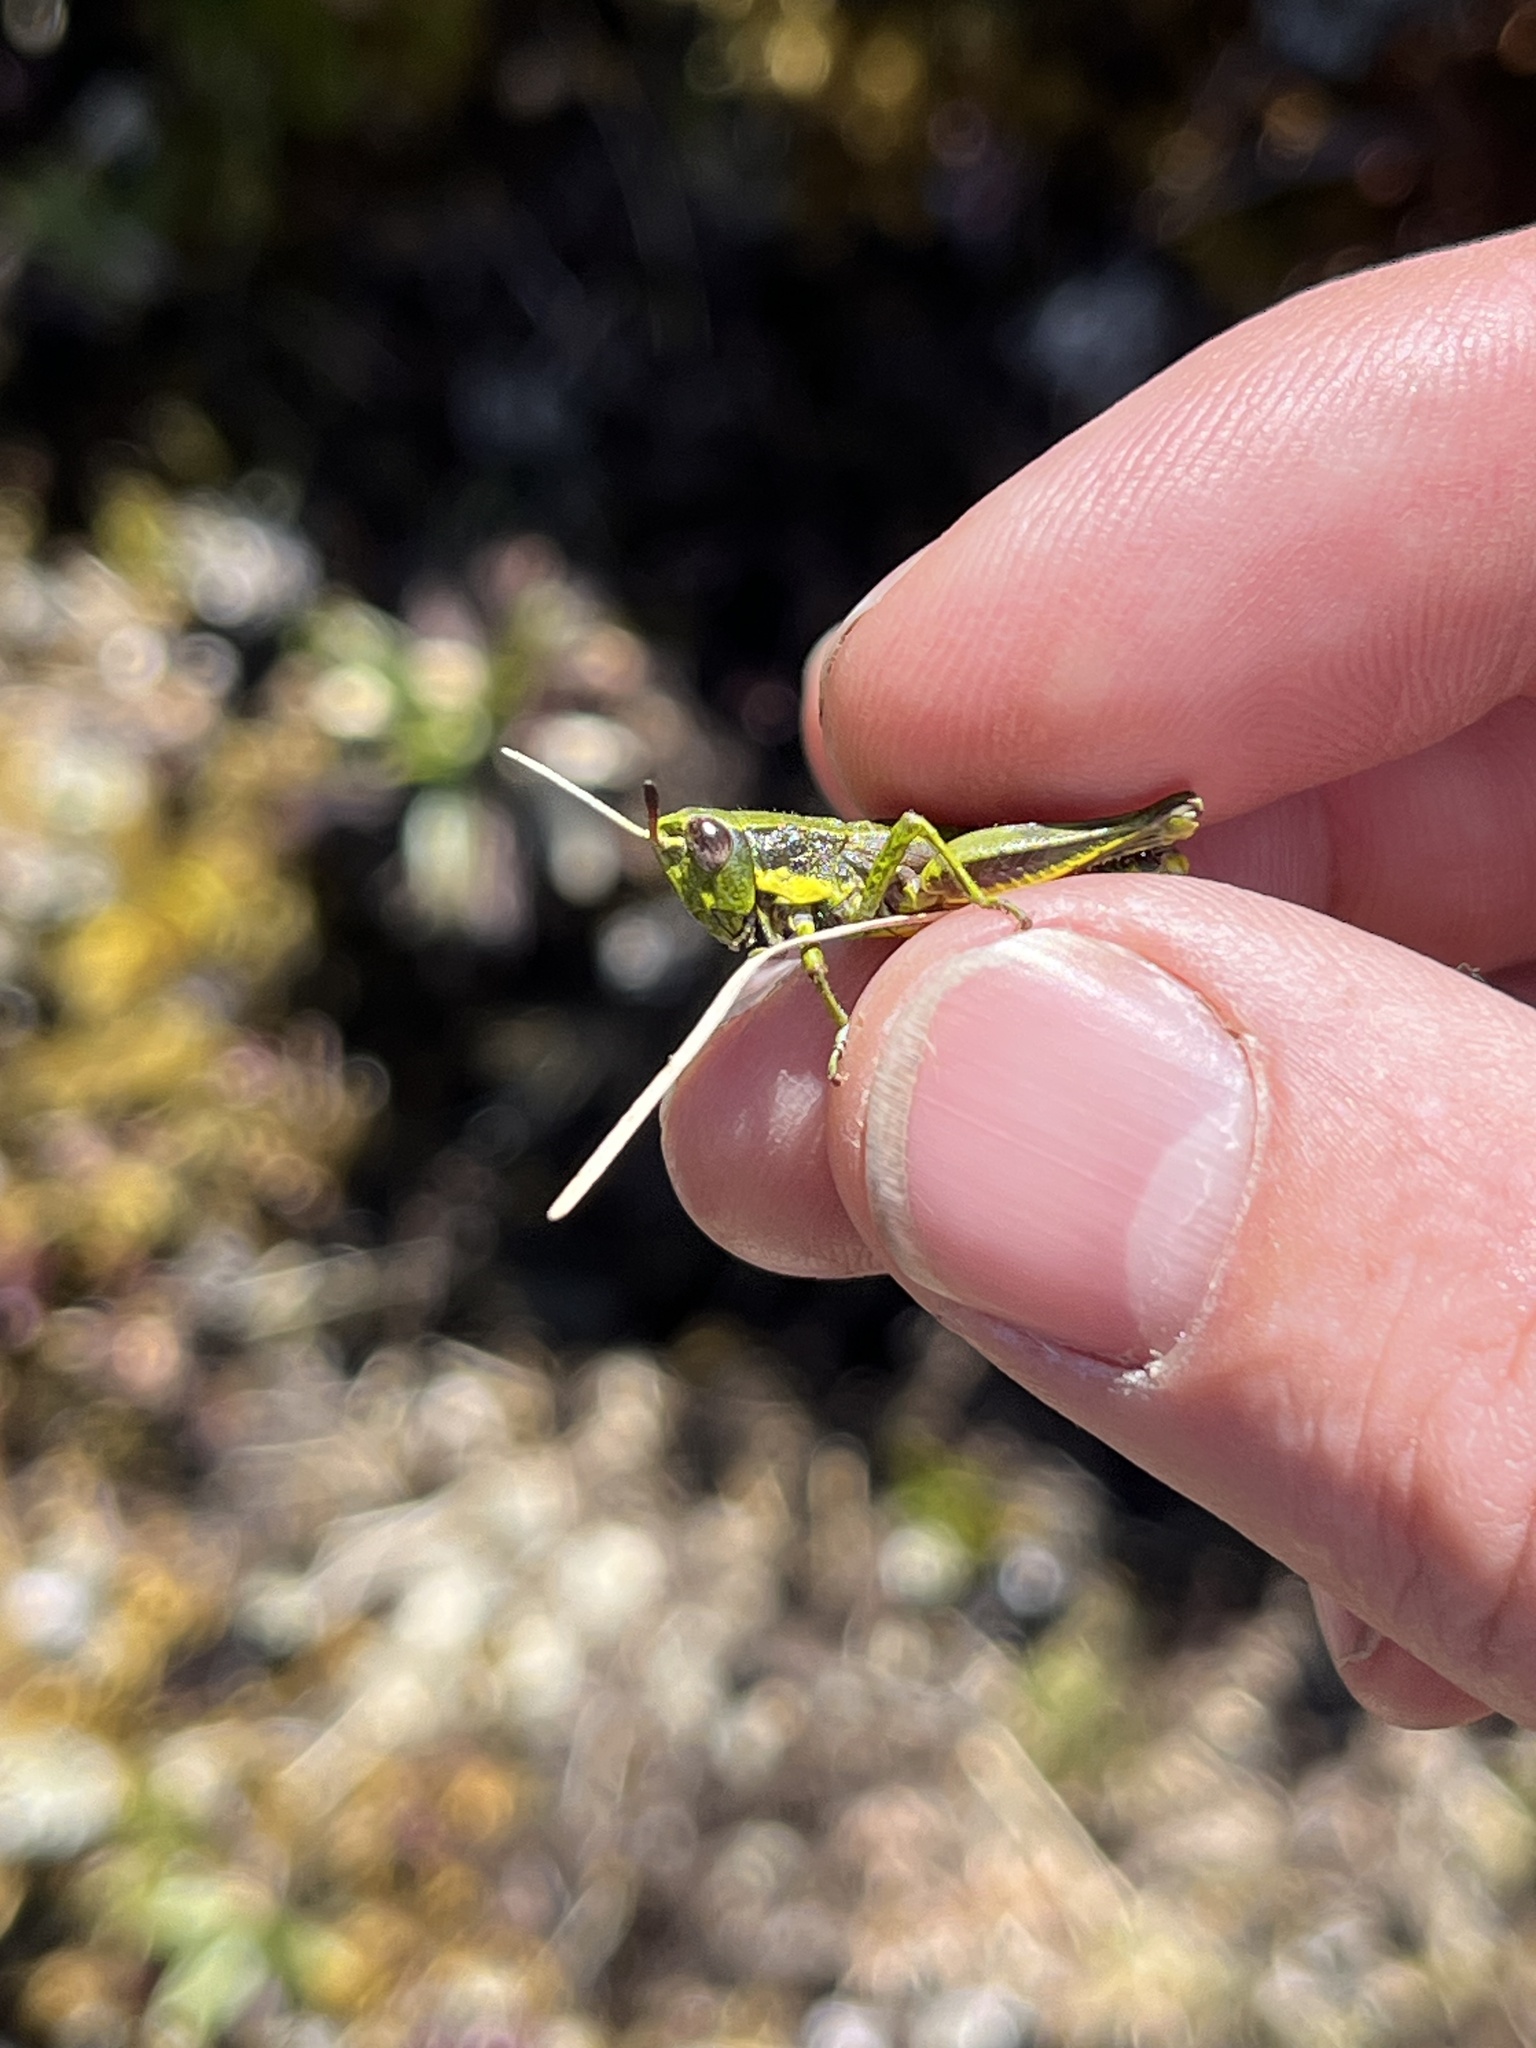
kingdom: Animalia
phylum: Arthropoda
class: Insecta
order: Orthoptera
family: Acrididae
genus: Sigaus
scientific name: Sigaus piliferus
